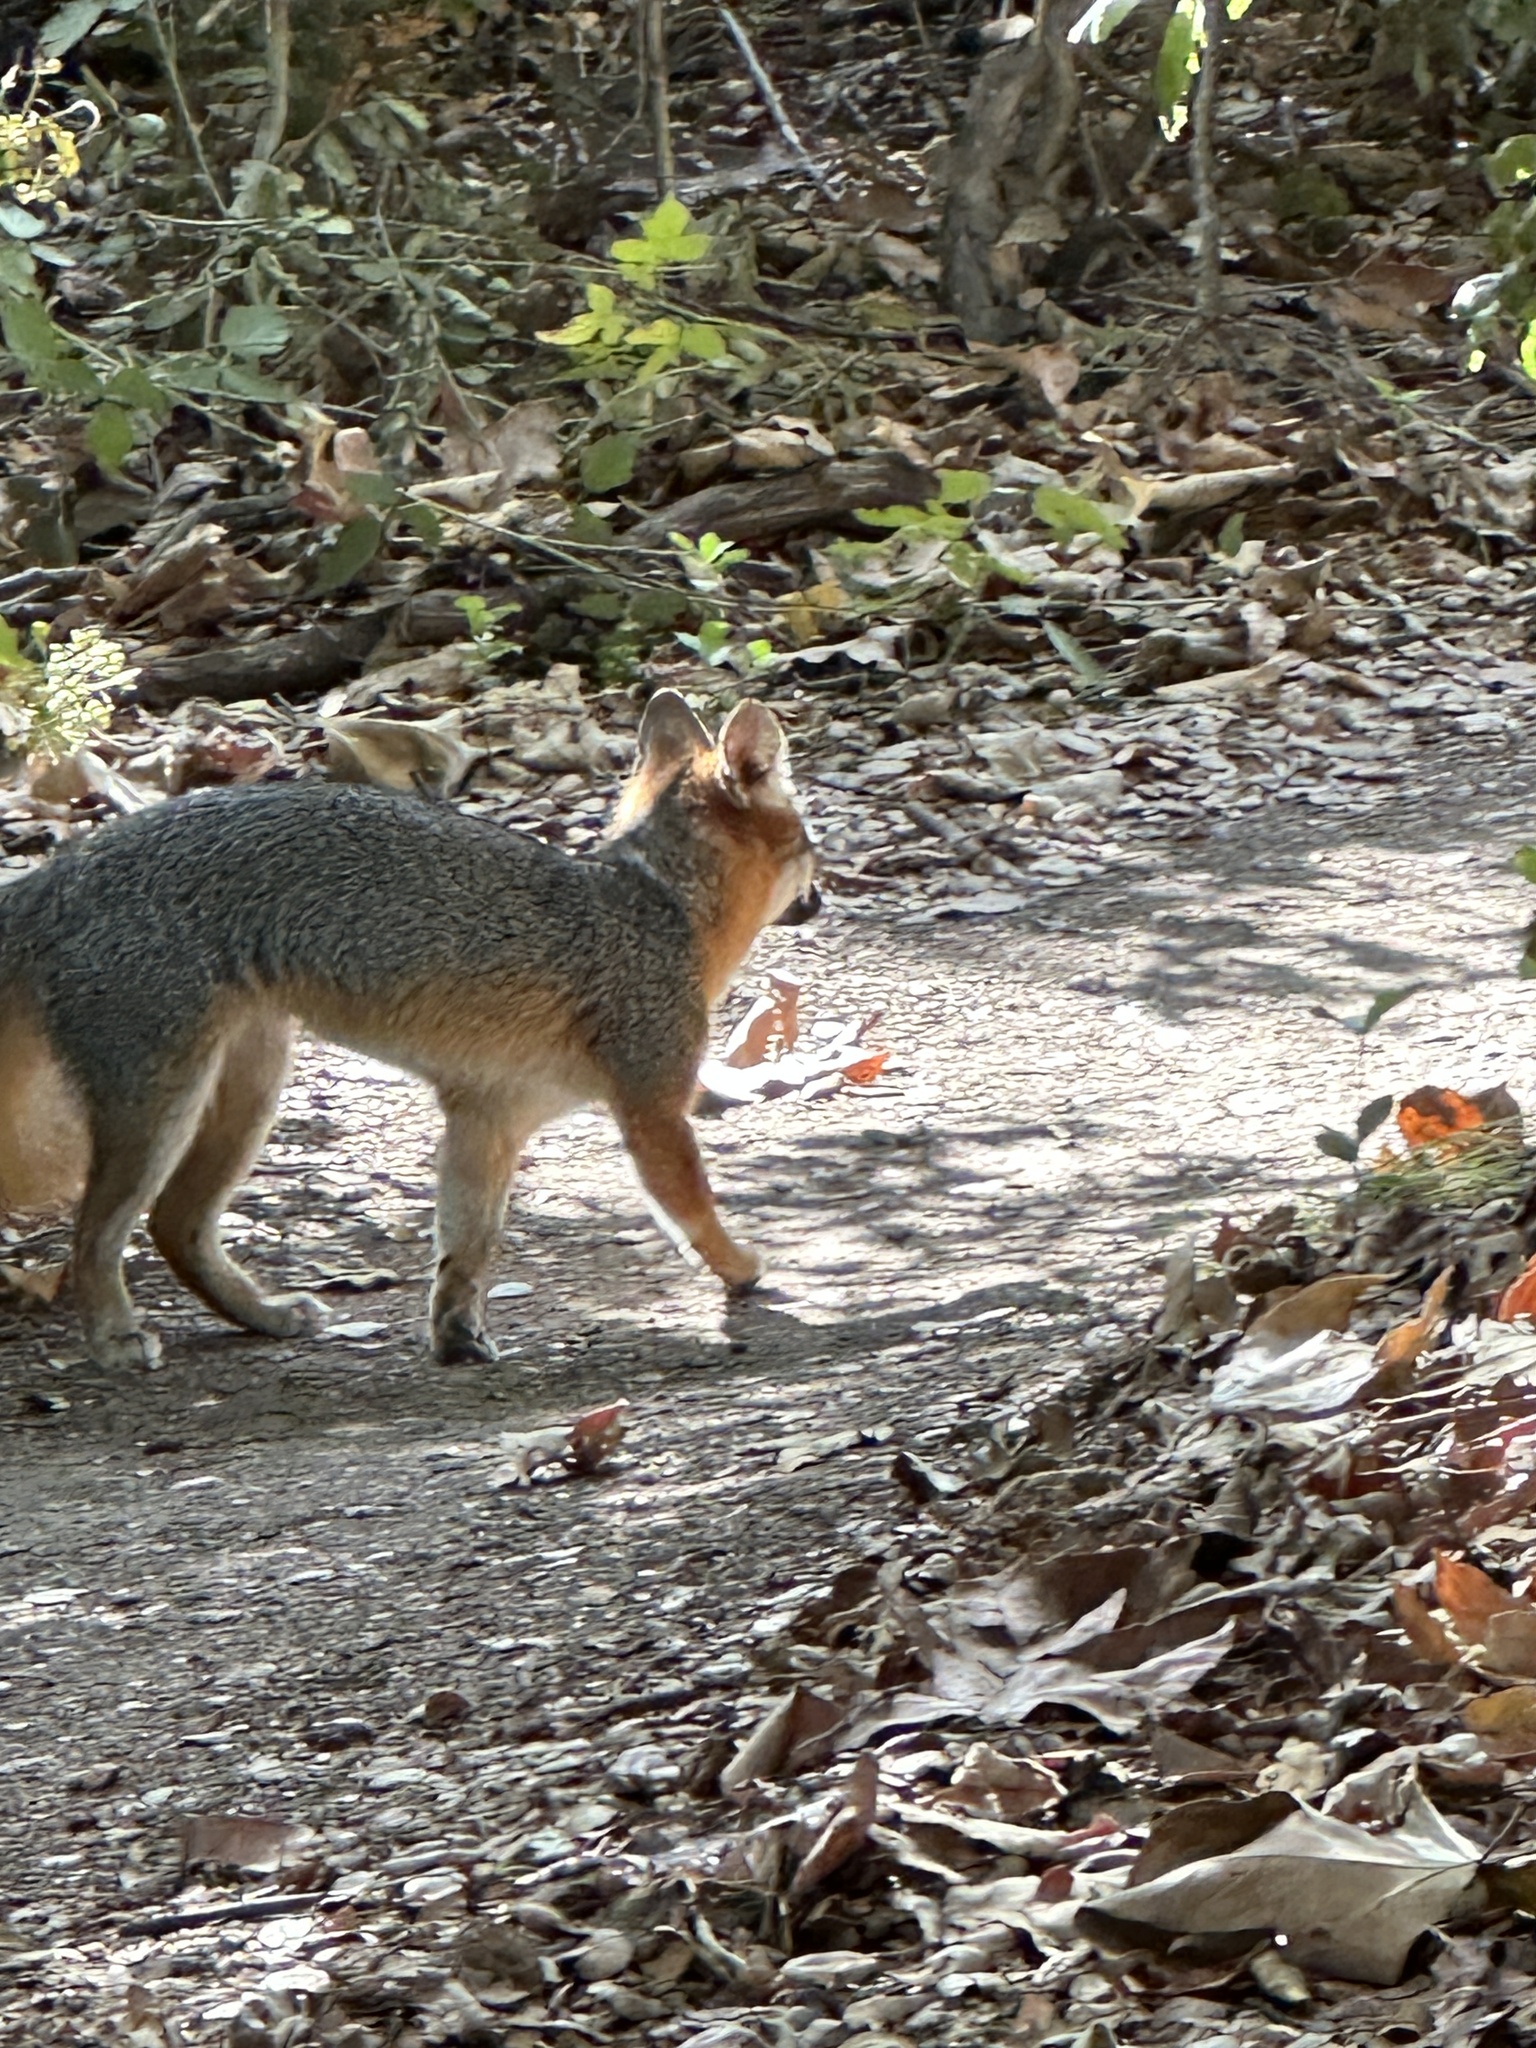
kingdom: Animalia
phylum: Chordata
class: Mammalia
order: Carnivora
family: Canidae
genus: Urocyon
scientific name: Urocyon cinereoargenteus
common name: Gray fox
